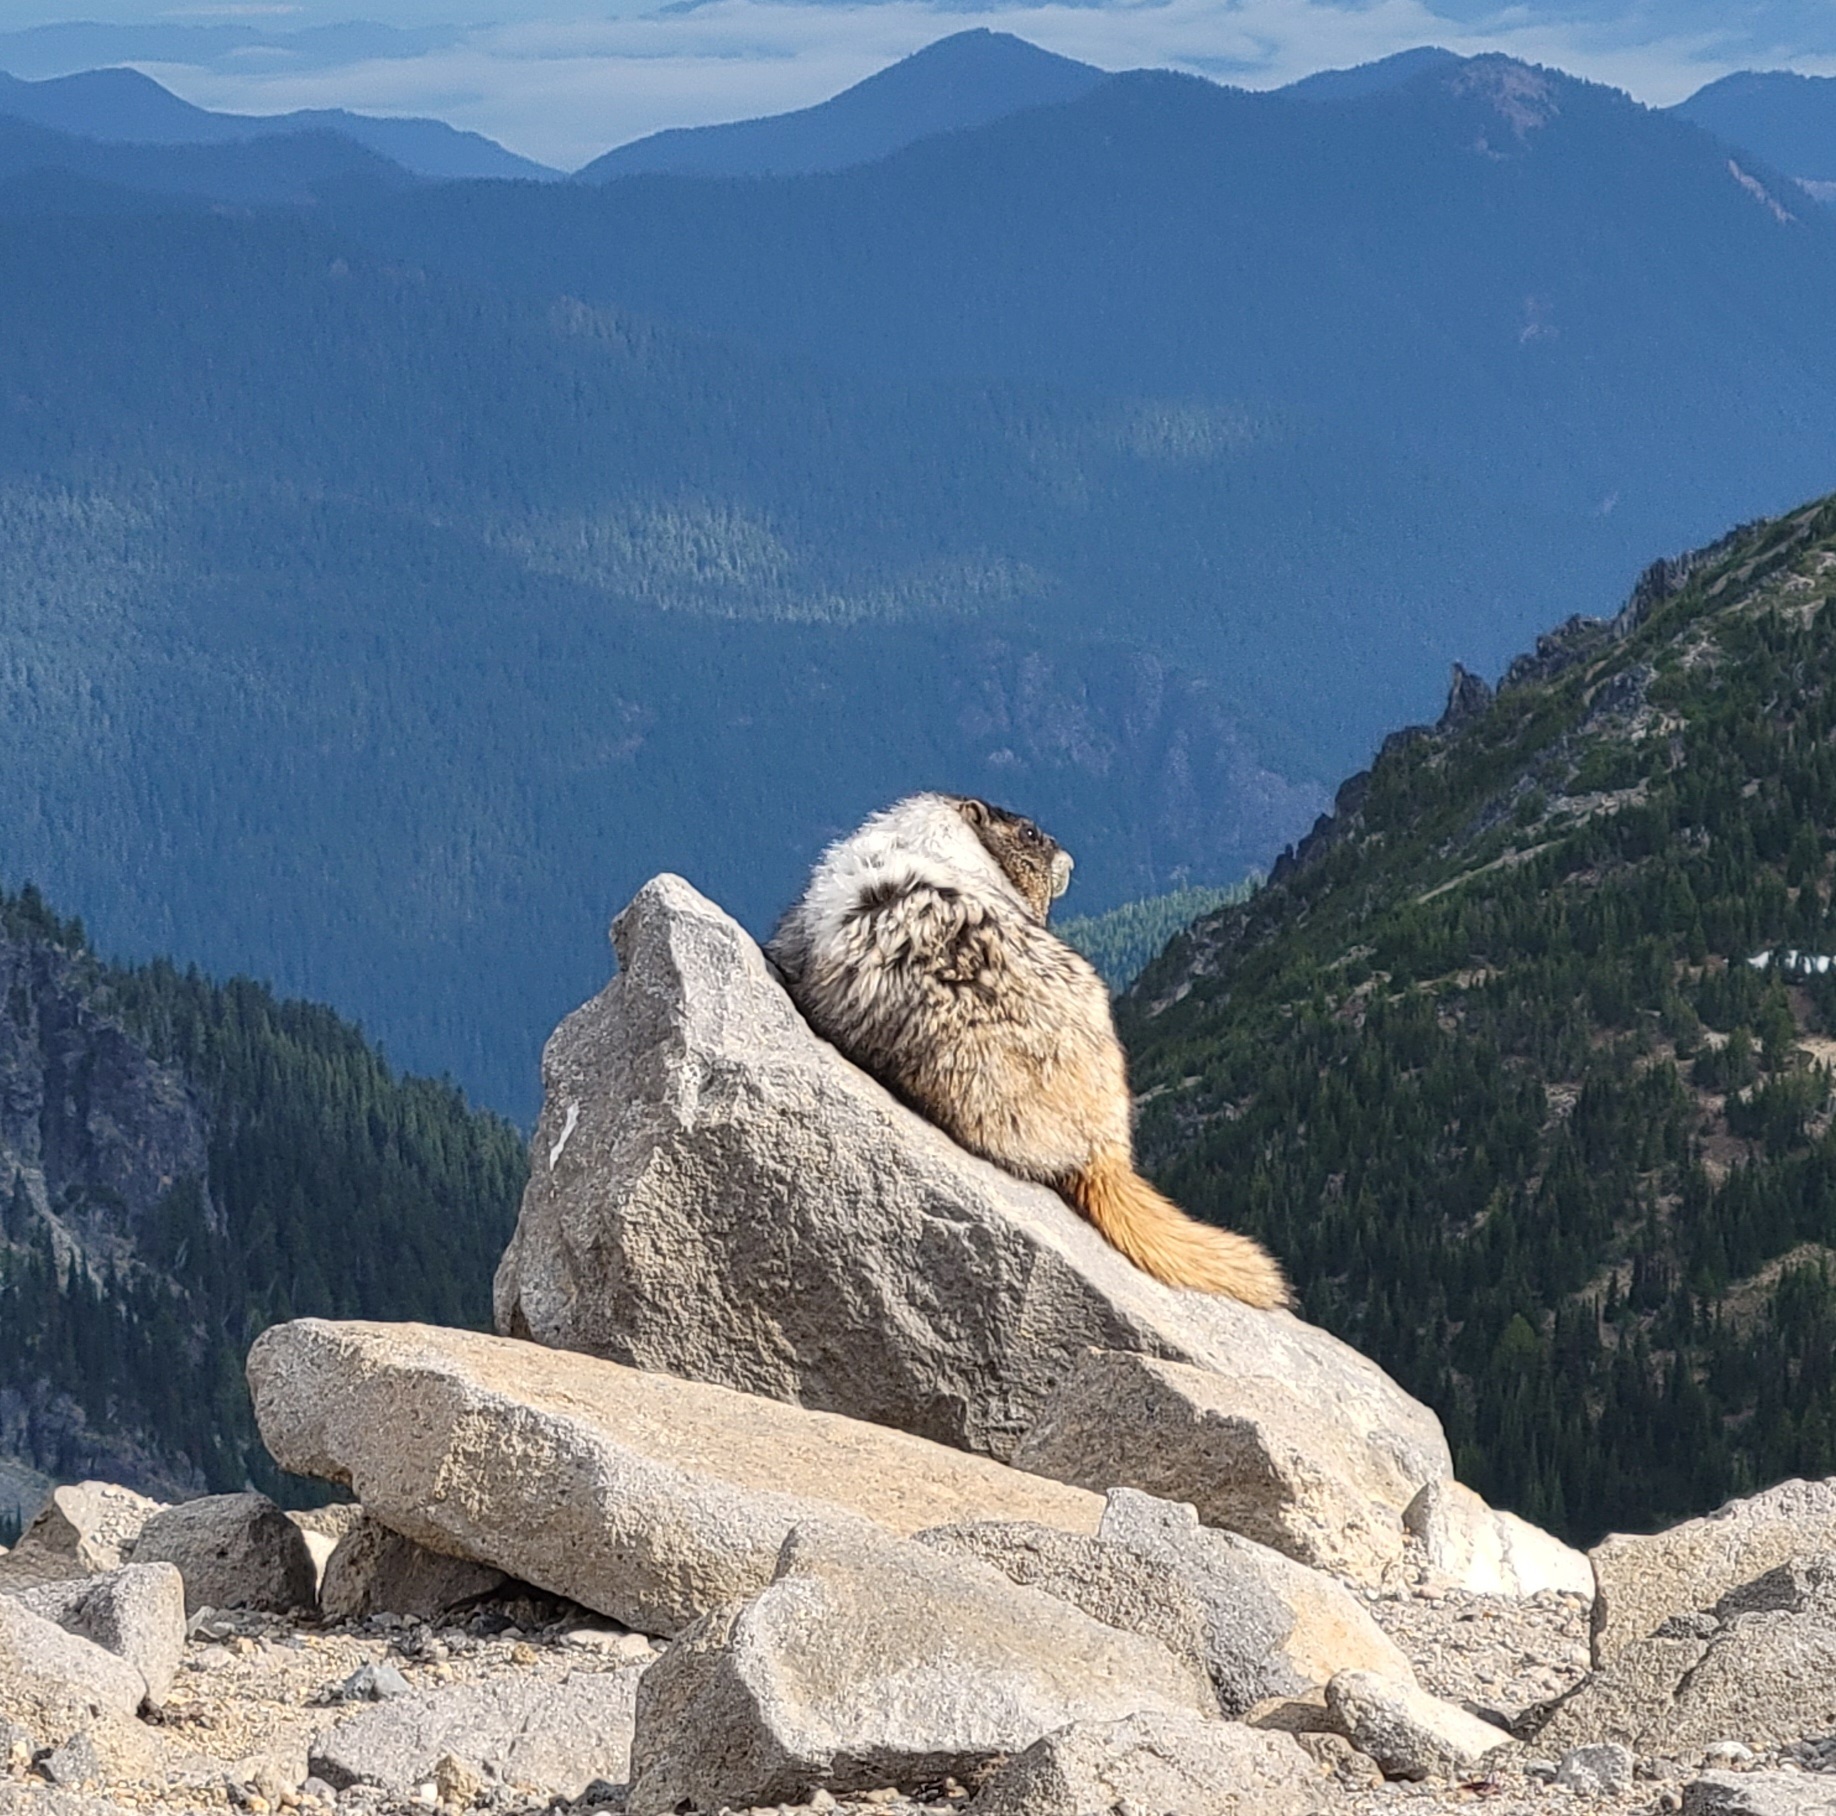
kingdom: Animalia
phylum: Chordata
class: Mammalia
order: Rodentia
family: Sciuridae
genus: Marmota
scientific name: Marmota caligata
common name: Hoary marmot
